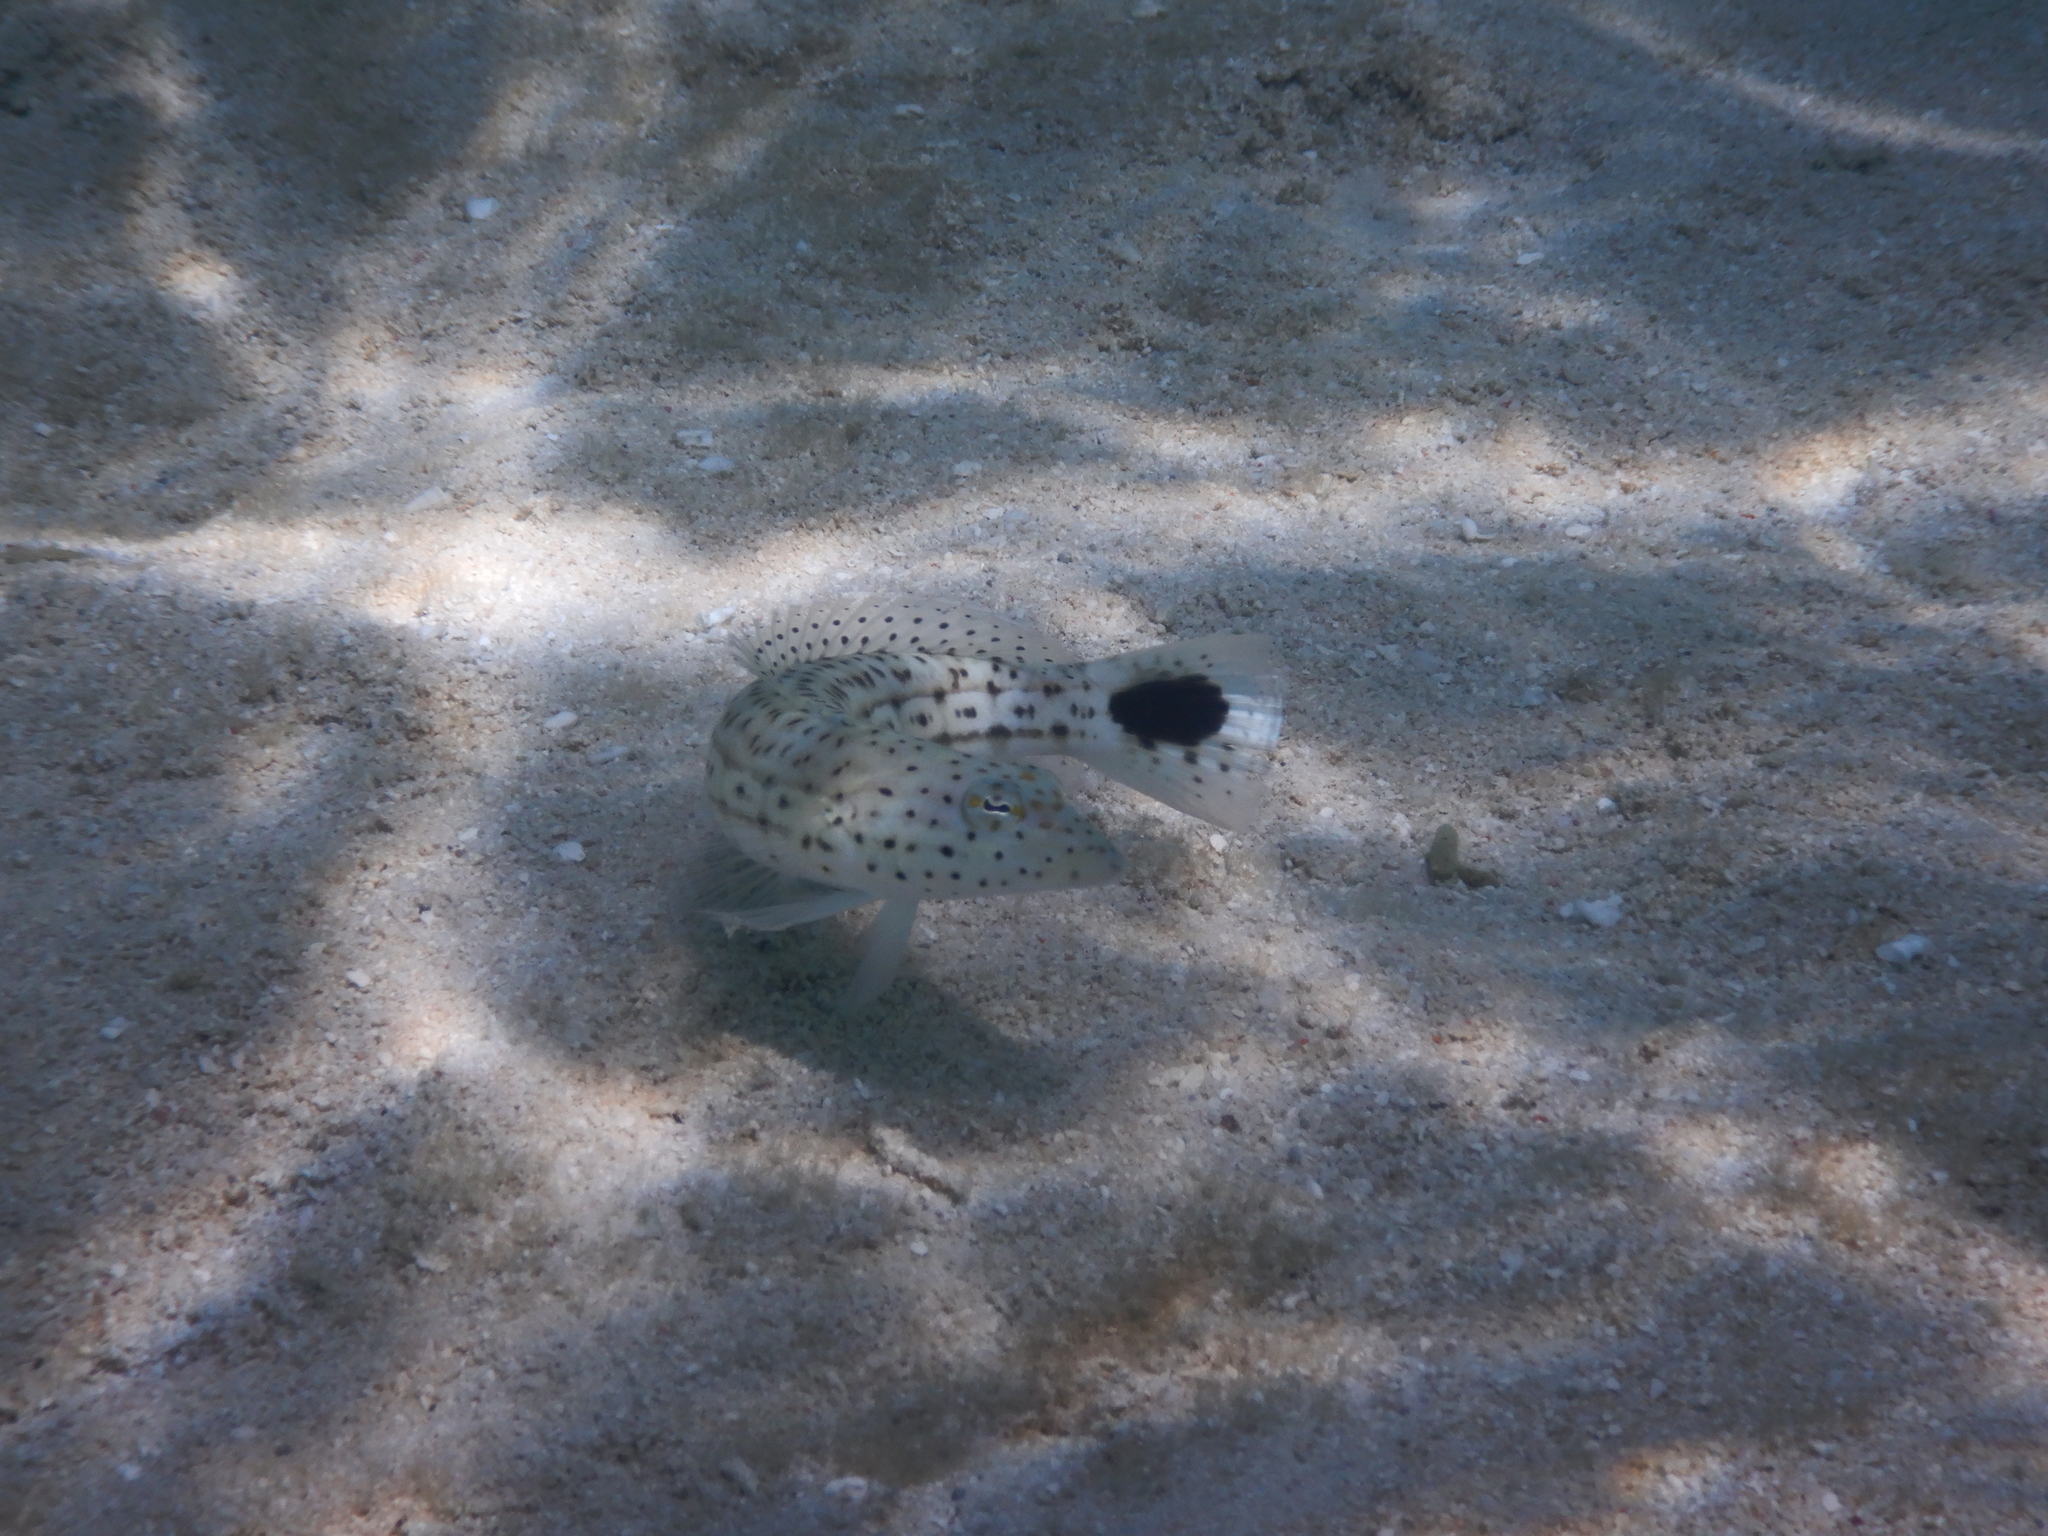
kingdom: Animalia
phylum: Chordata
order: Perciformes
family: Pinguipedidae
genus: Parapercis
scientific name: Parapercis queenslandica
